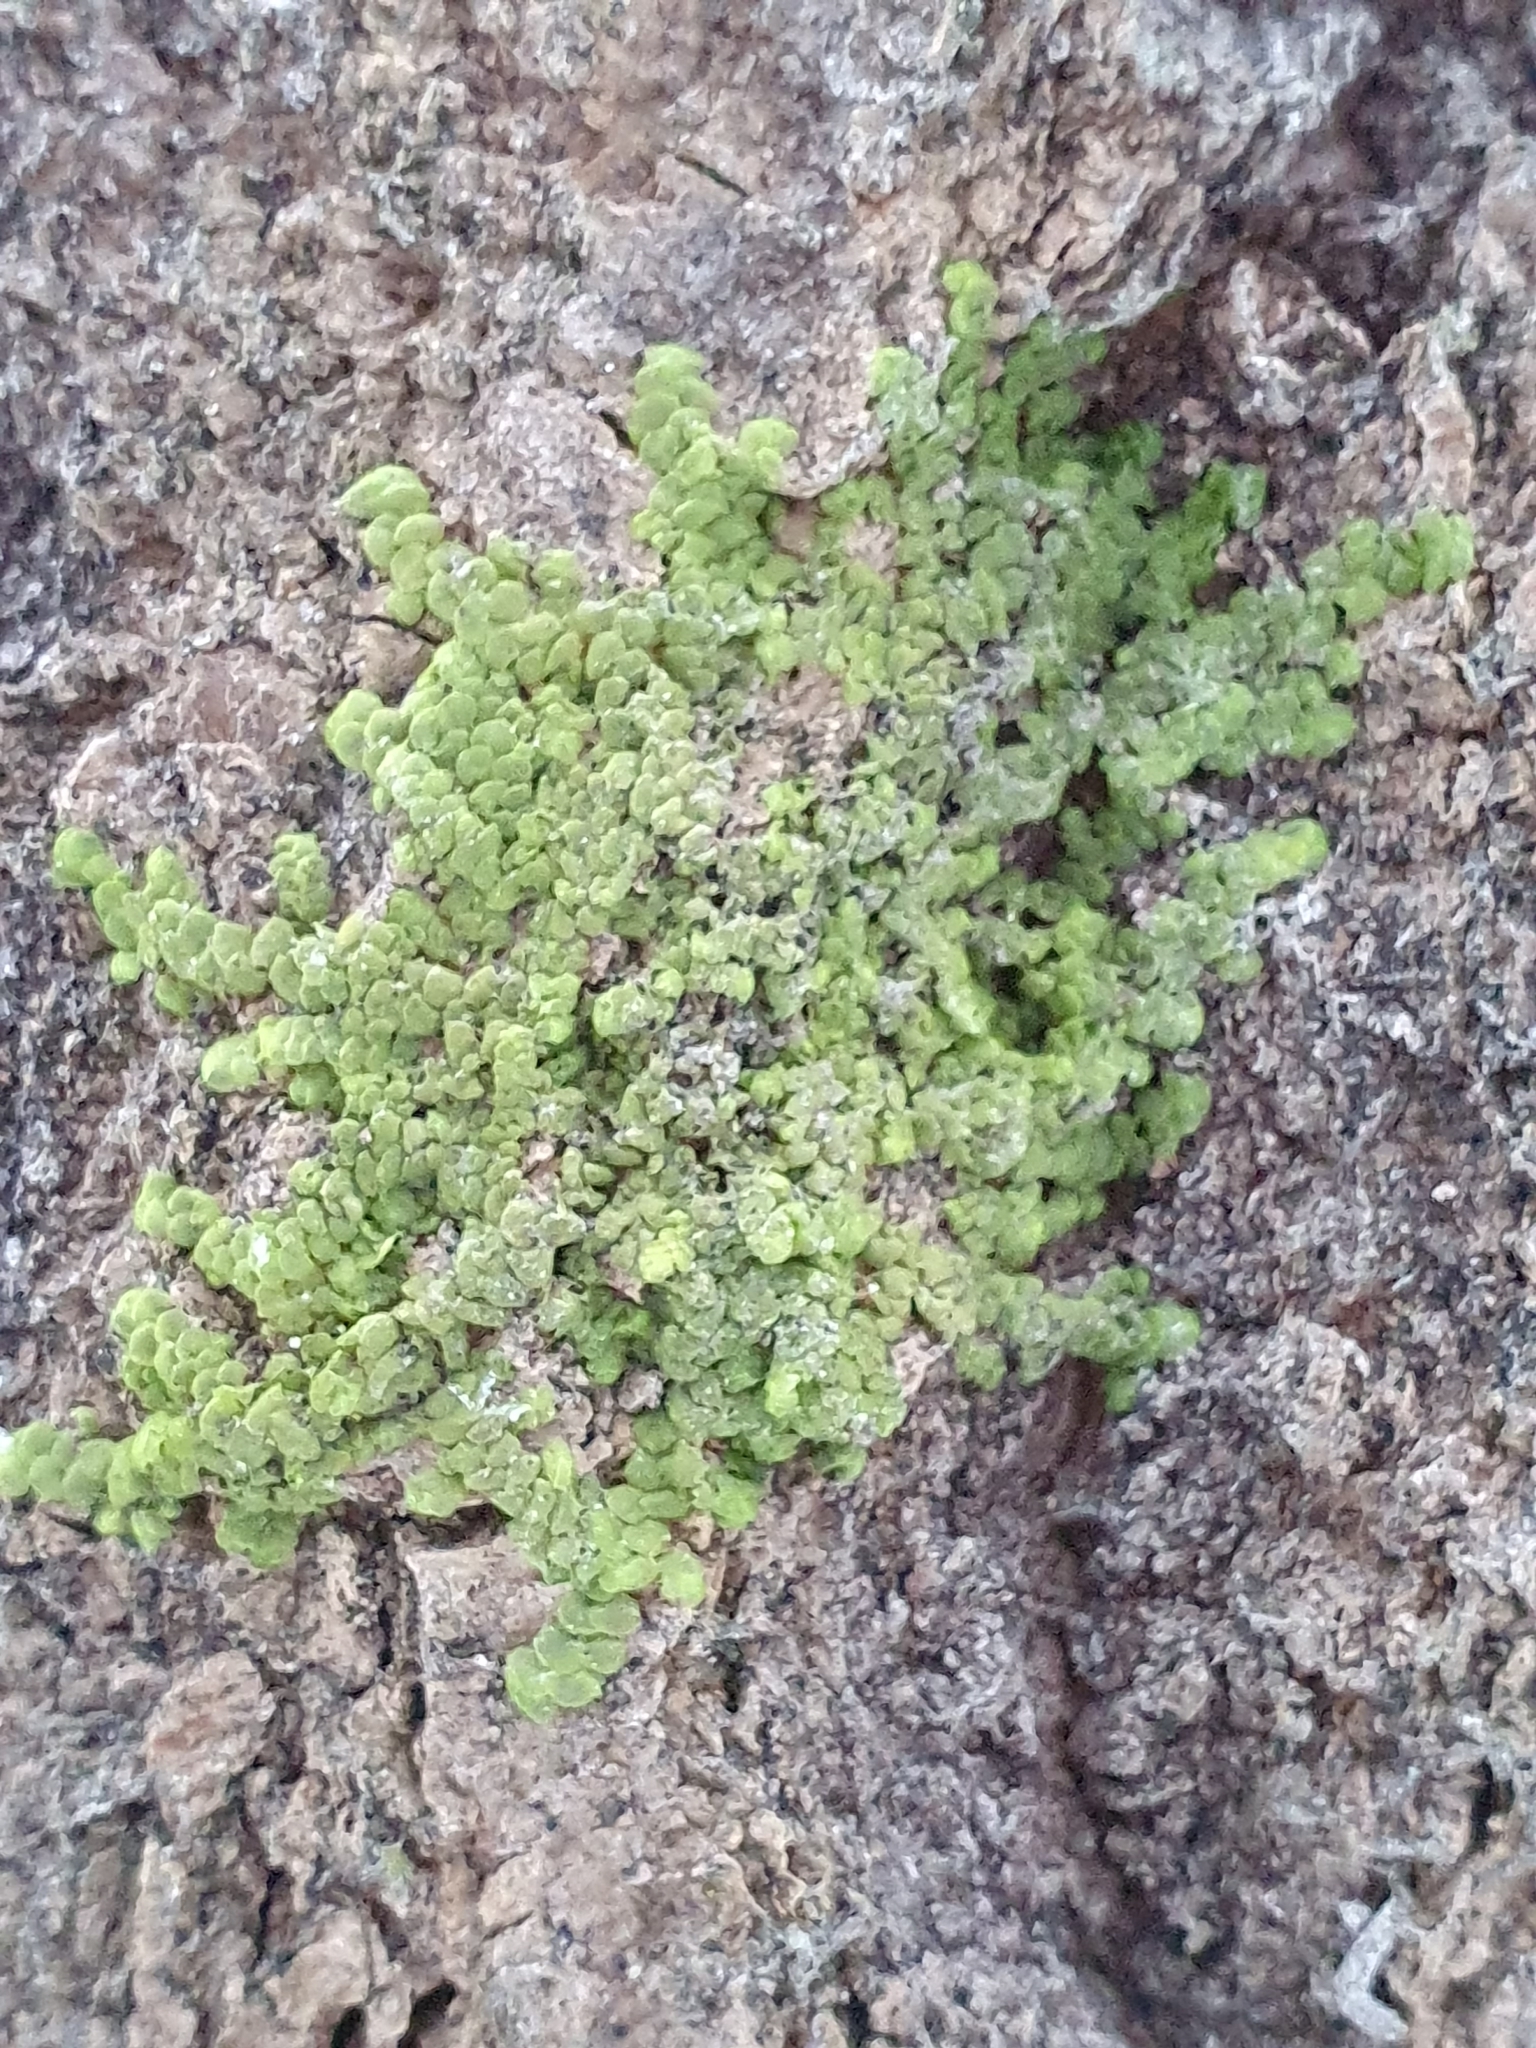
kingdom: Plantae
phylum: Marchantiophyta
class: Jungermanniopsida
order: Porellales
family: Radulaceae
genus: Radula
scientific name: Radula complanata
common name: Flat-leaved scalewort
